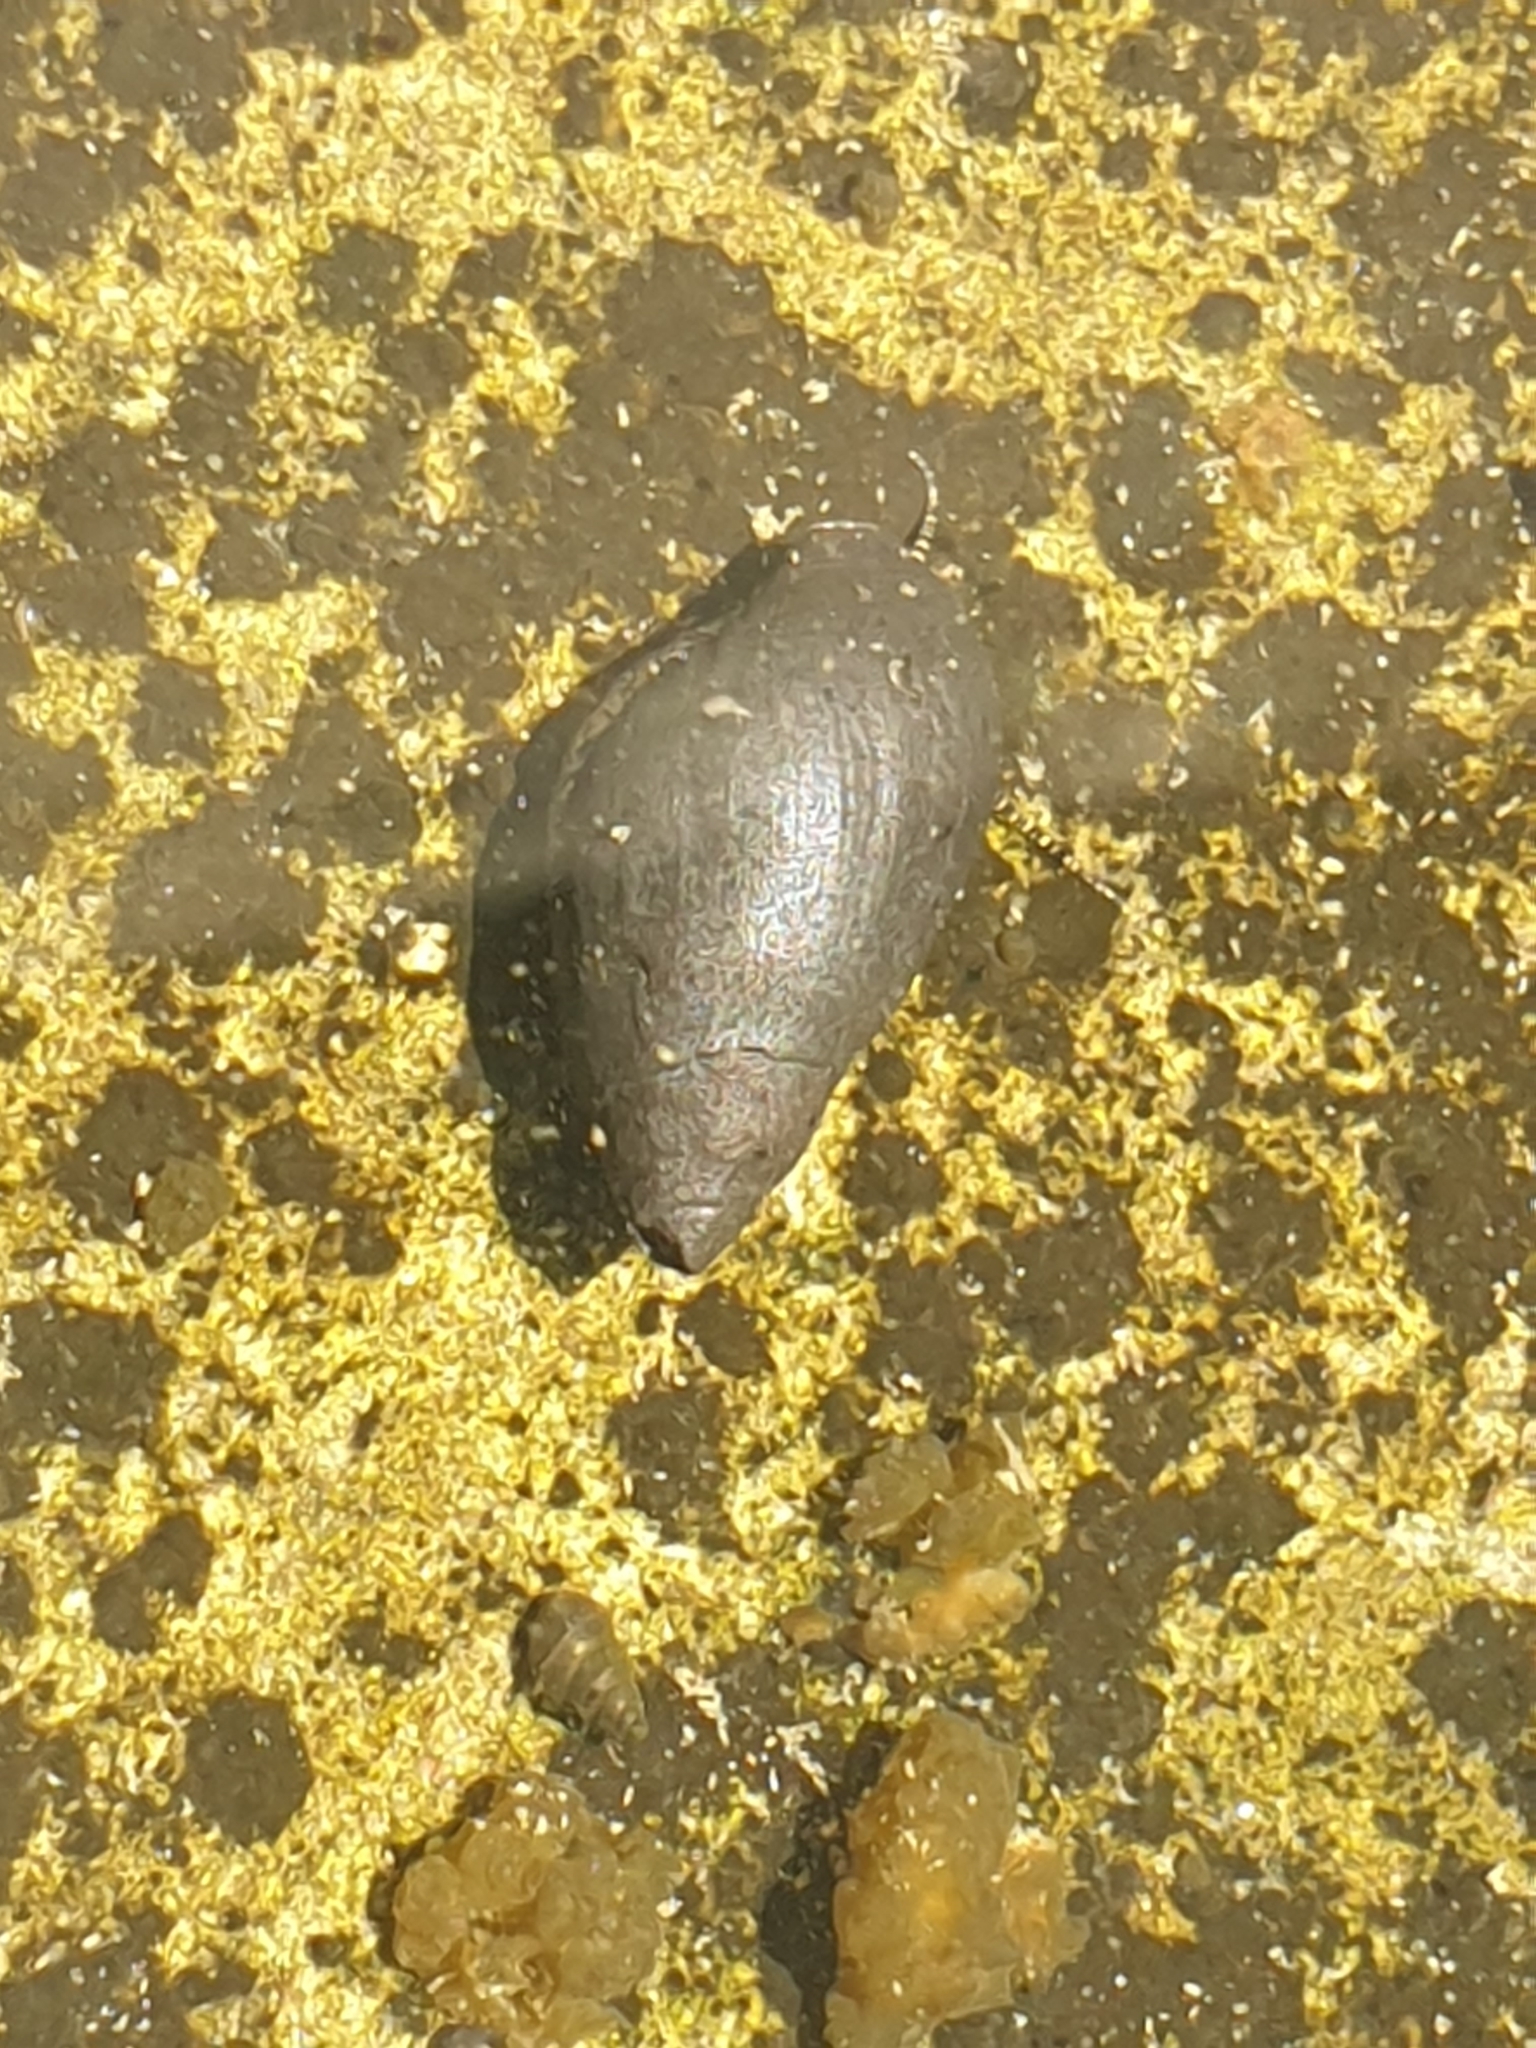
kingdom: Animalia
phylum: Mollusca
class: Gastropoda
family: Zemelanopsidae
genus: Zemelanopsis
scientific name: Zemelanopsis trifasciata
